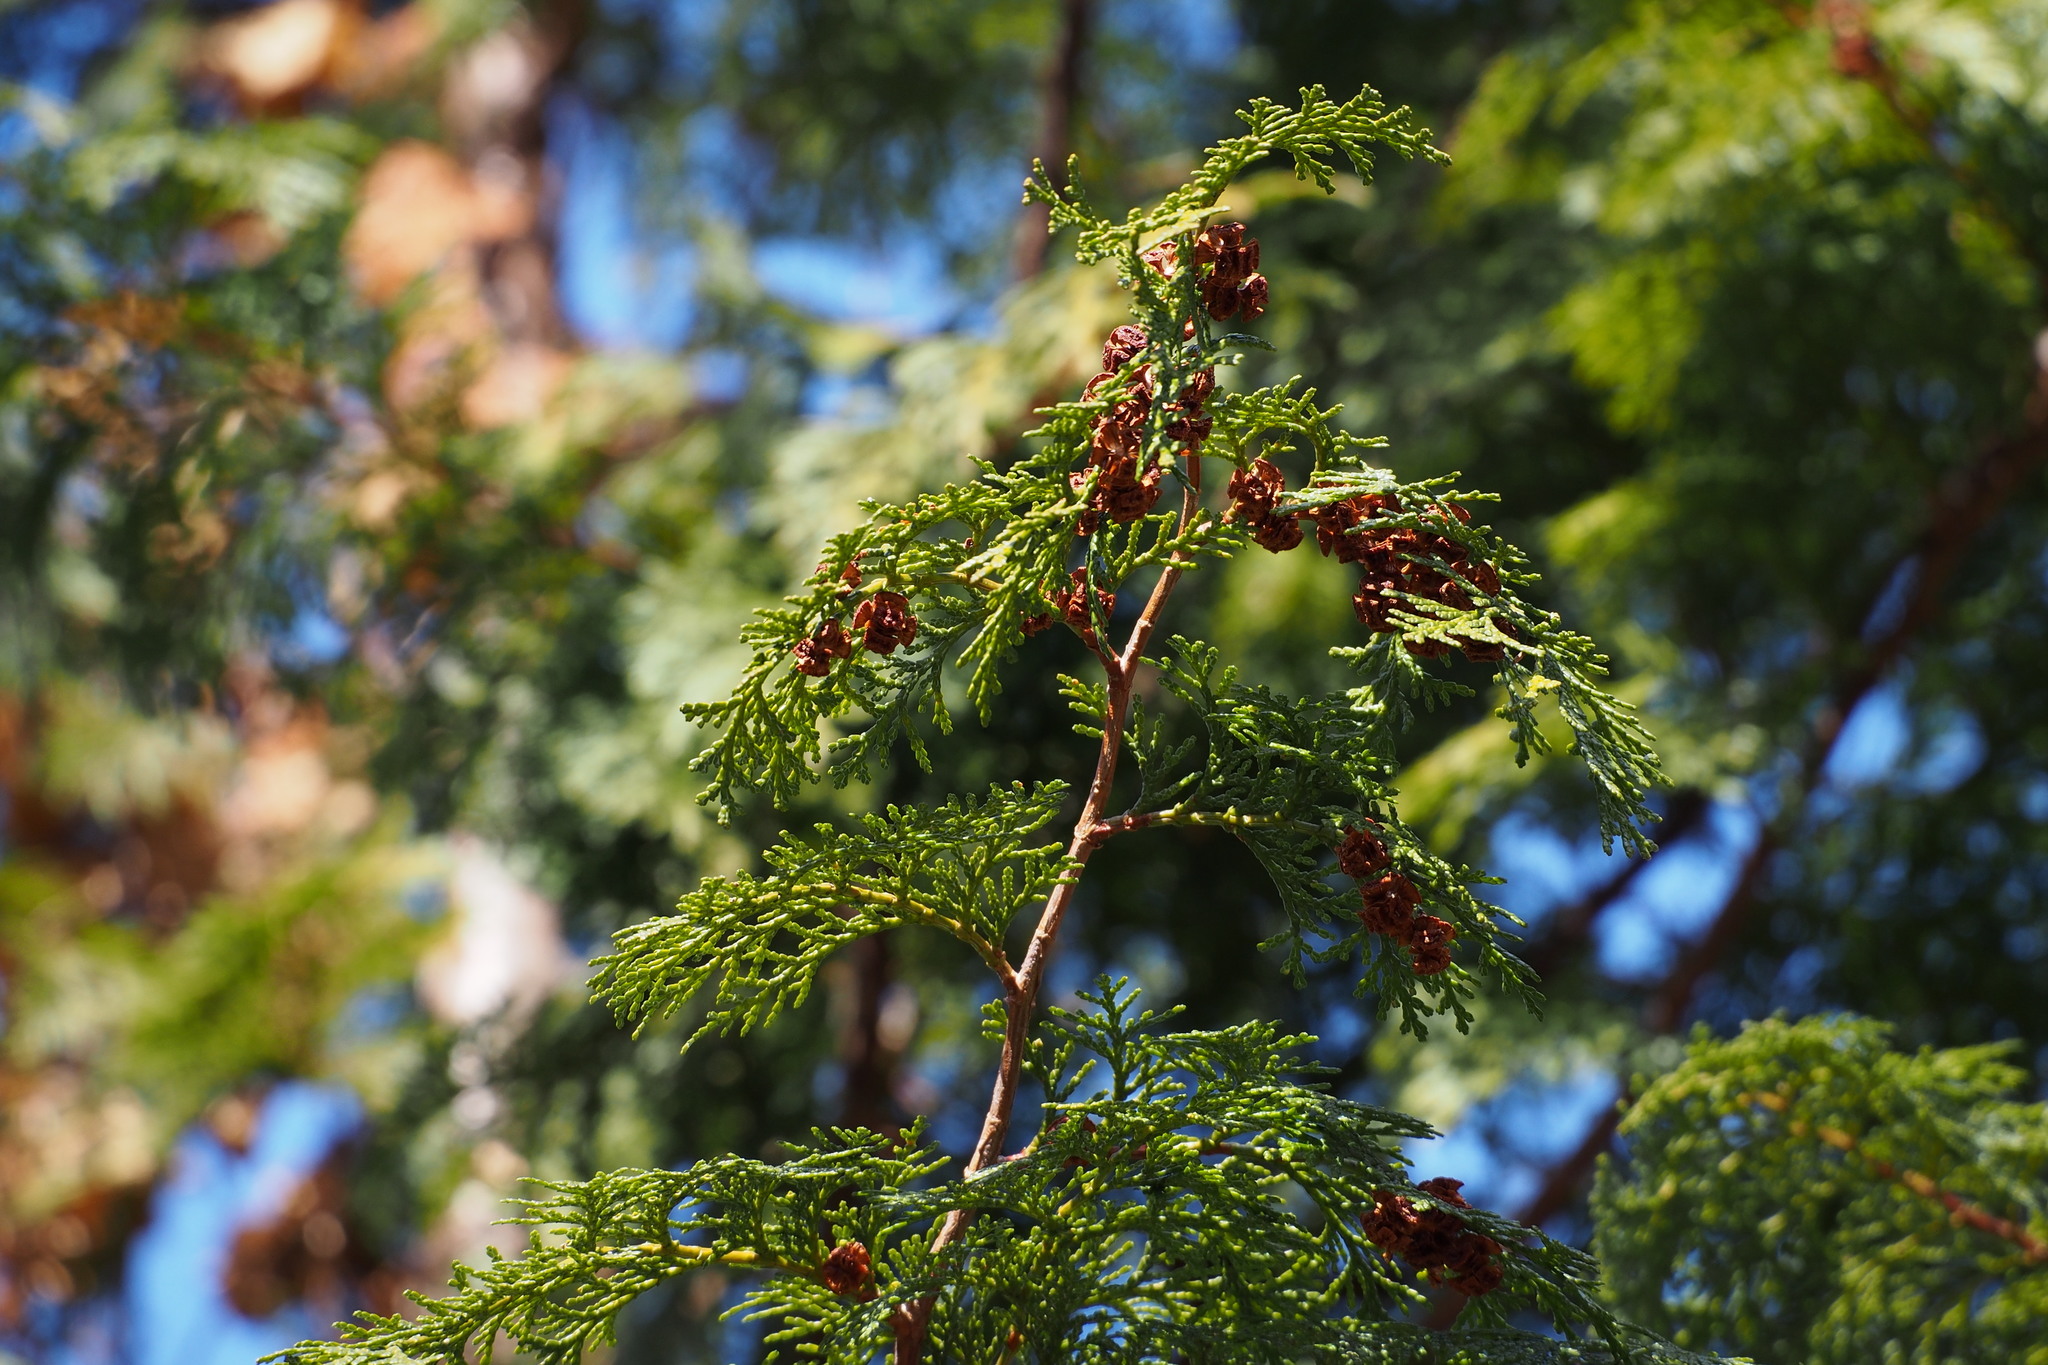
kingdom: Plantae
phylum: Tracheophyta
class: Pinopsida
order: Pinales
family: Cupressaceae
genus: Chamaecyparis
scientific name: Chamaecyparis obtusa
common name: Hinoki false cypress
